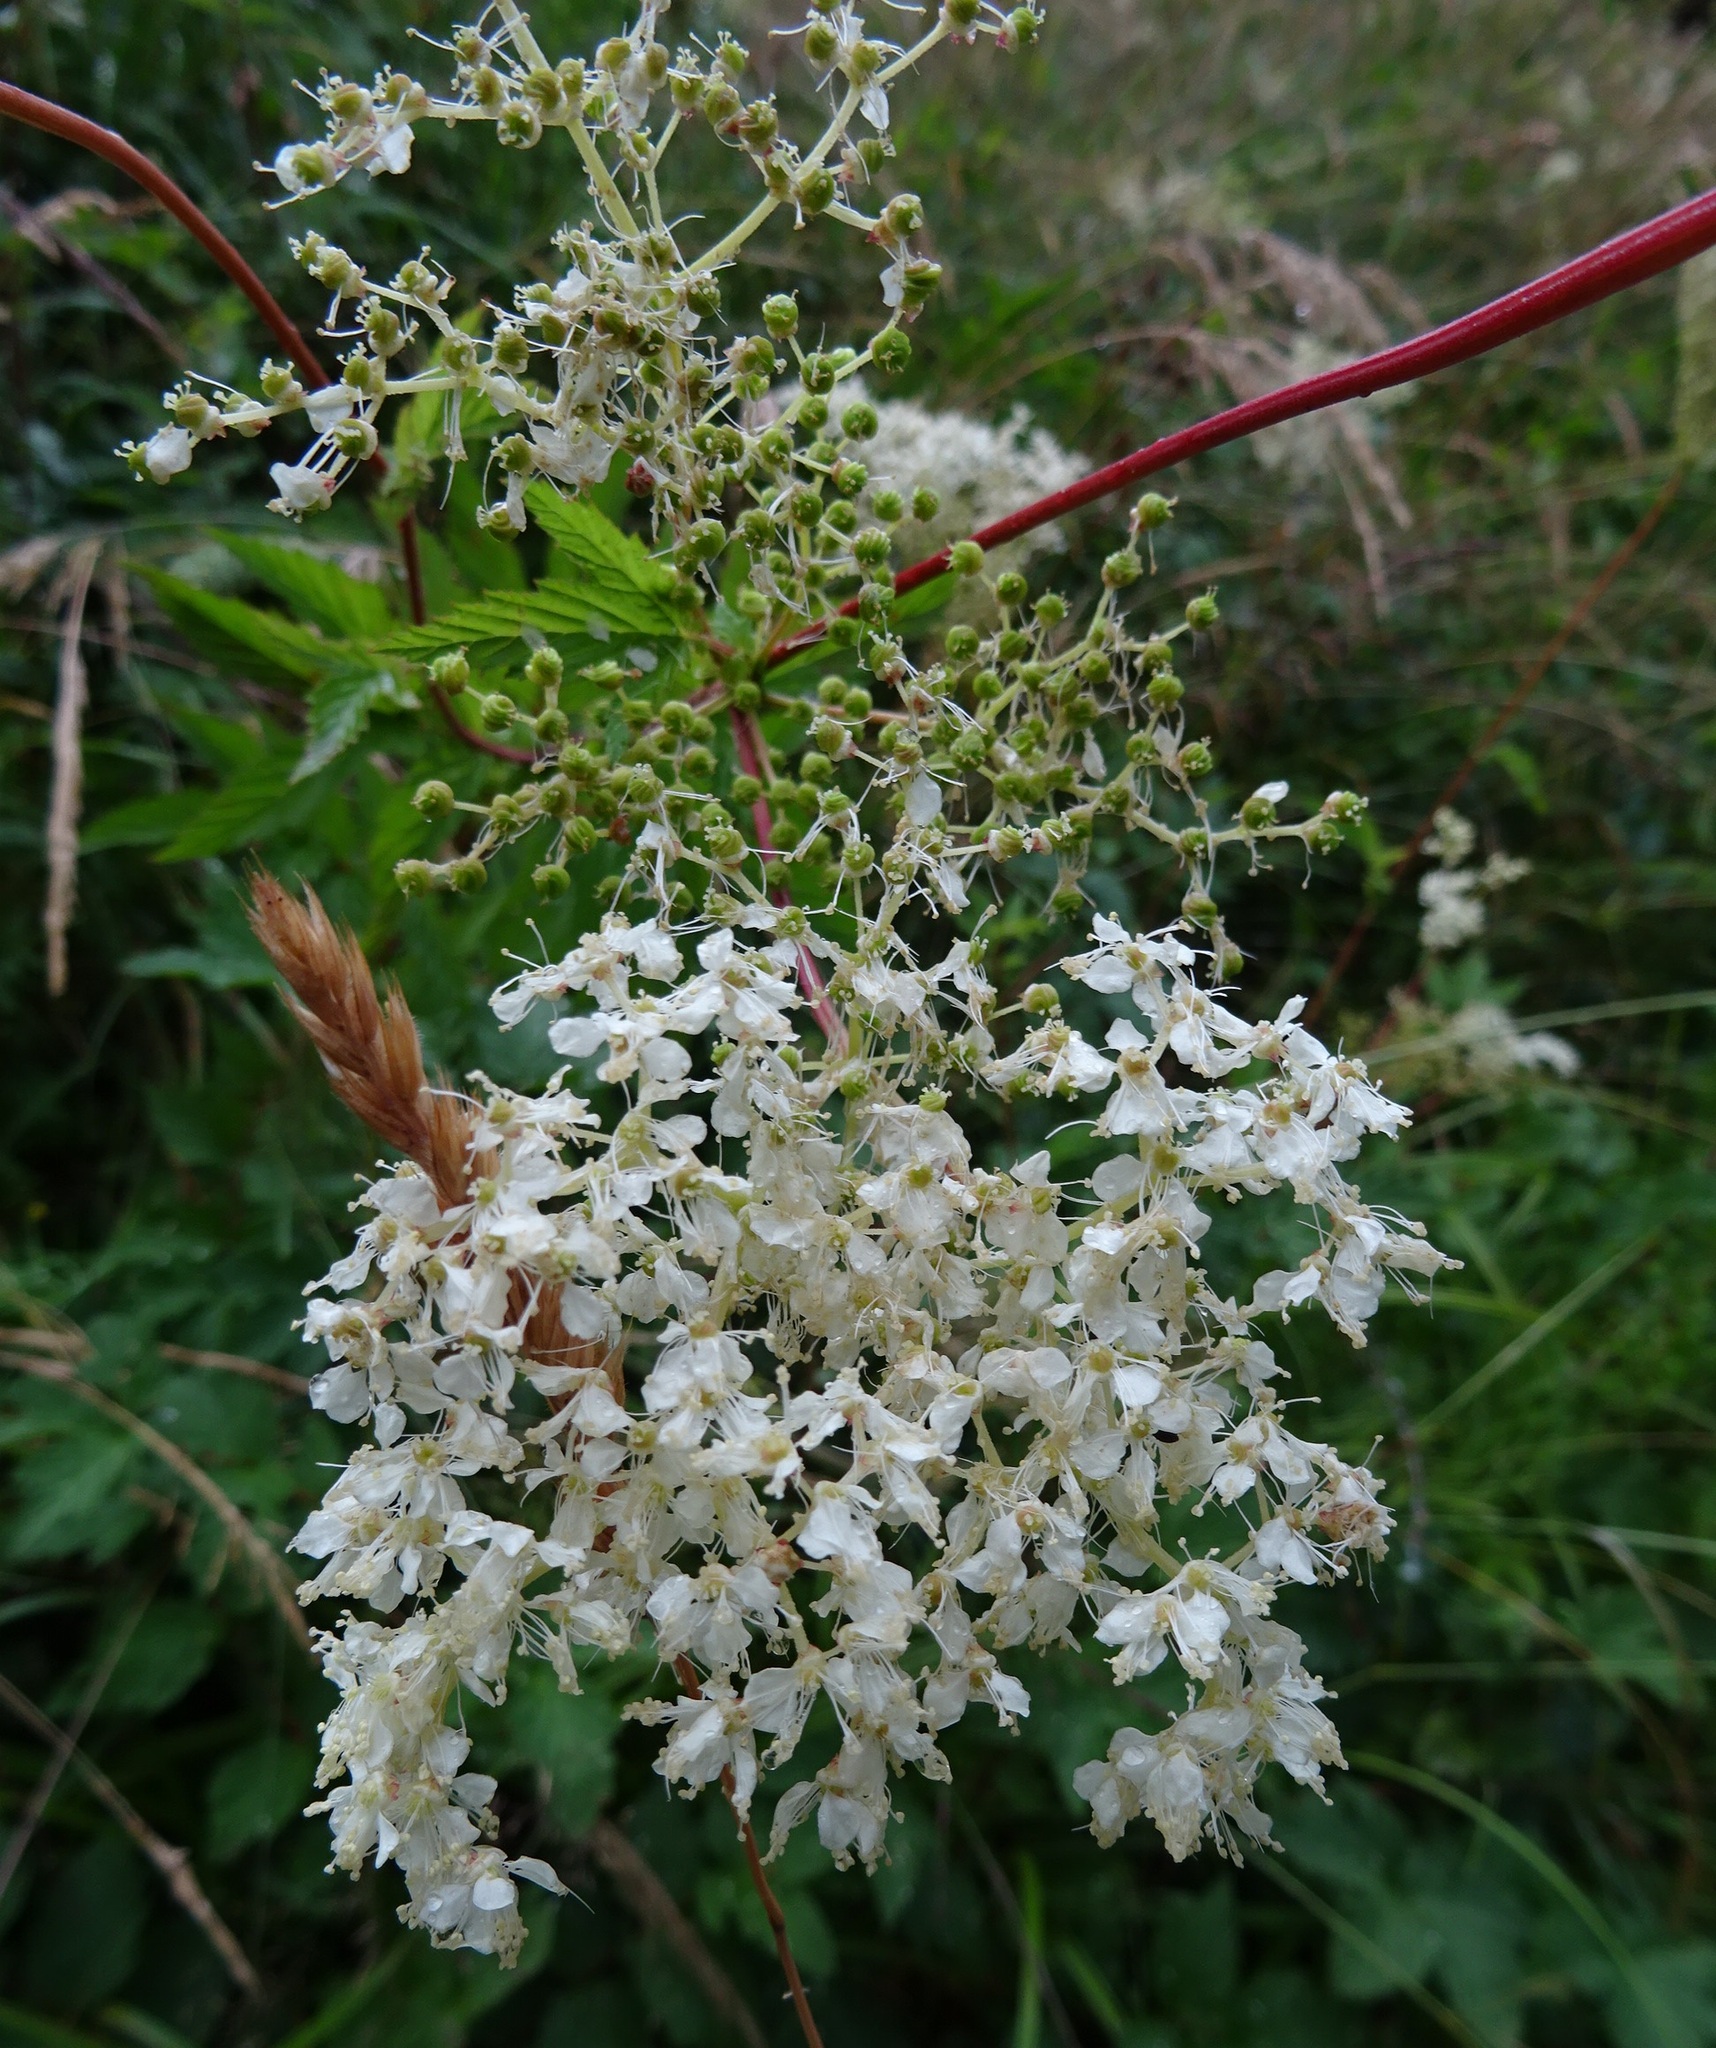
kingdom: Plantae
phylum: Tracheophyta
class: Magnoliopsida
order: Rosales
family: Rosaceae
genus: Filipendula
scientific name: Filipendula ulmaria
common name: Meadowsweet
